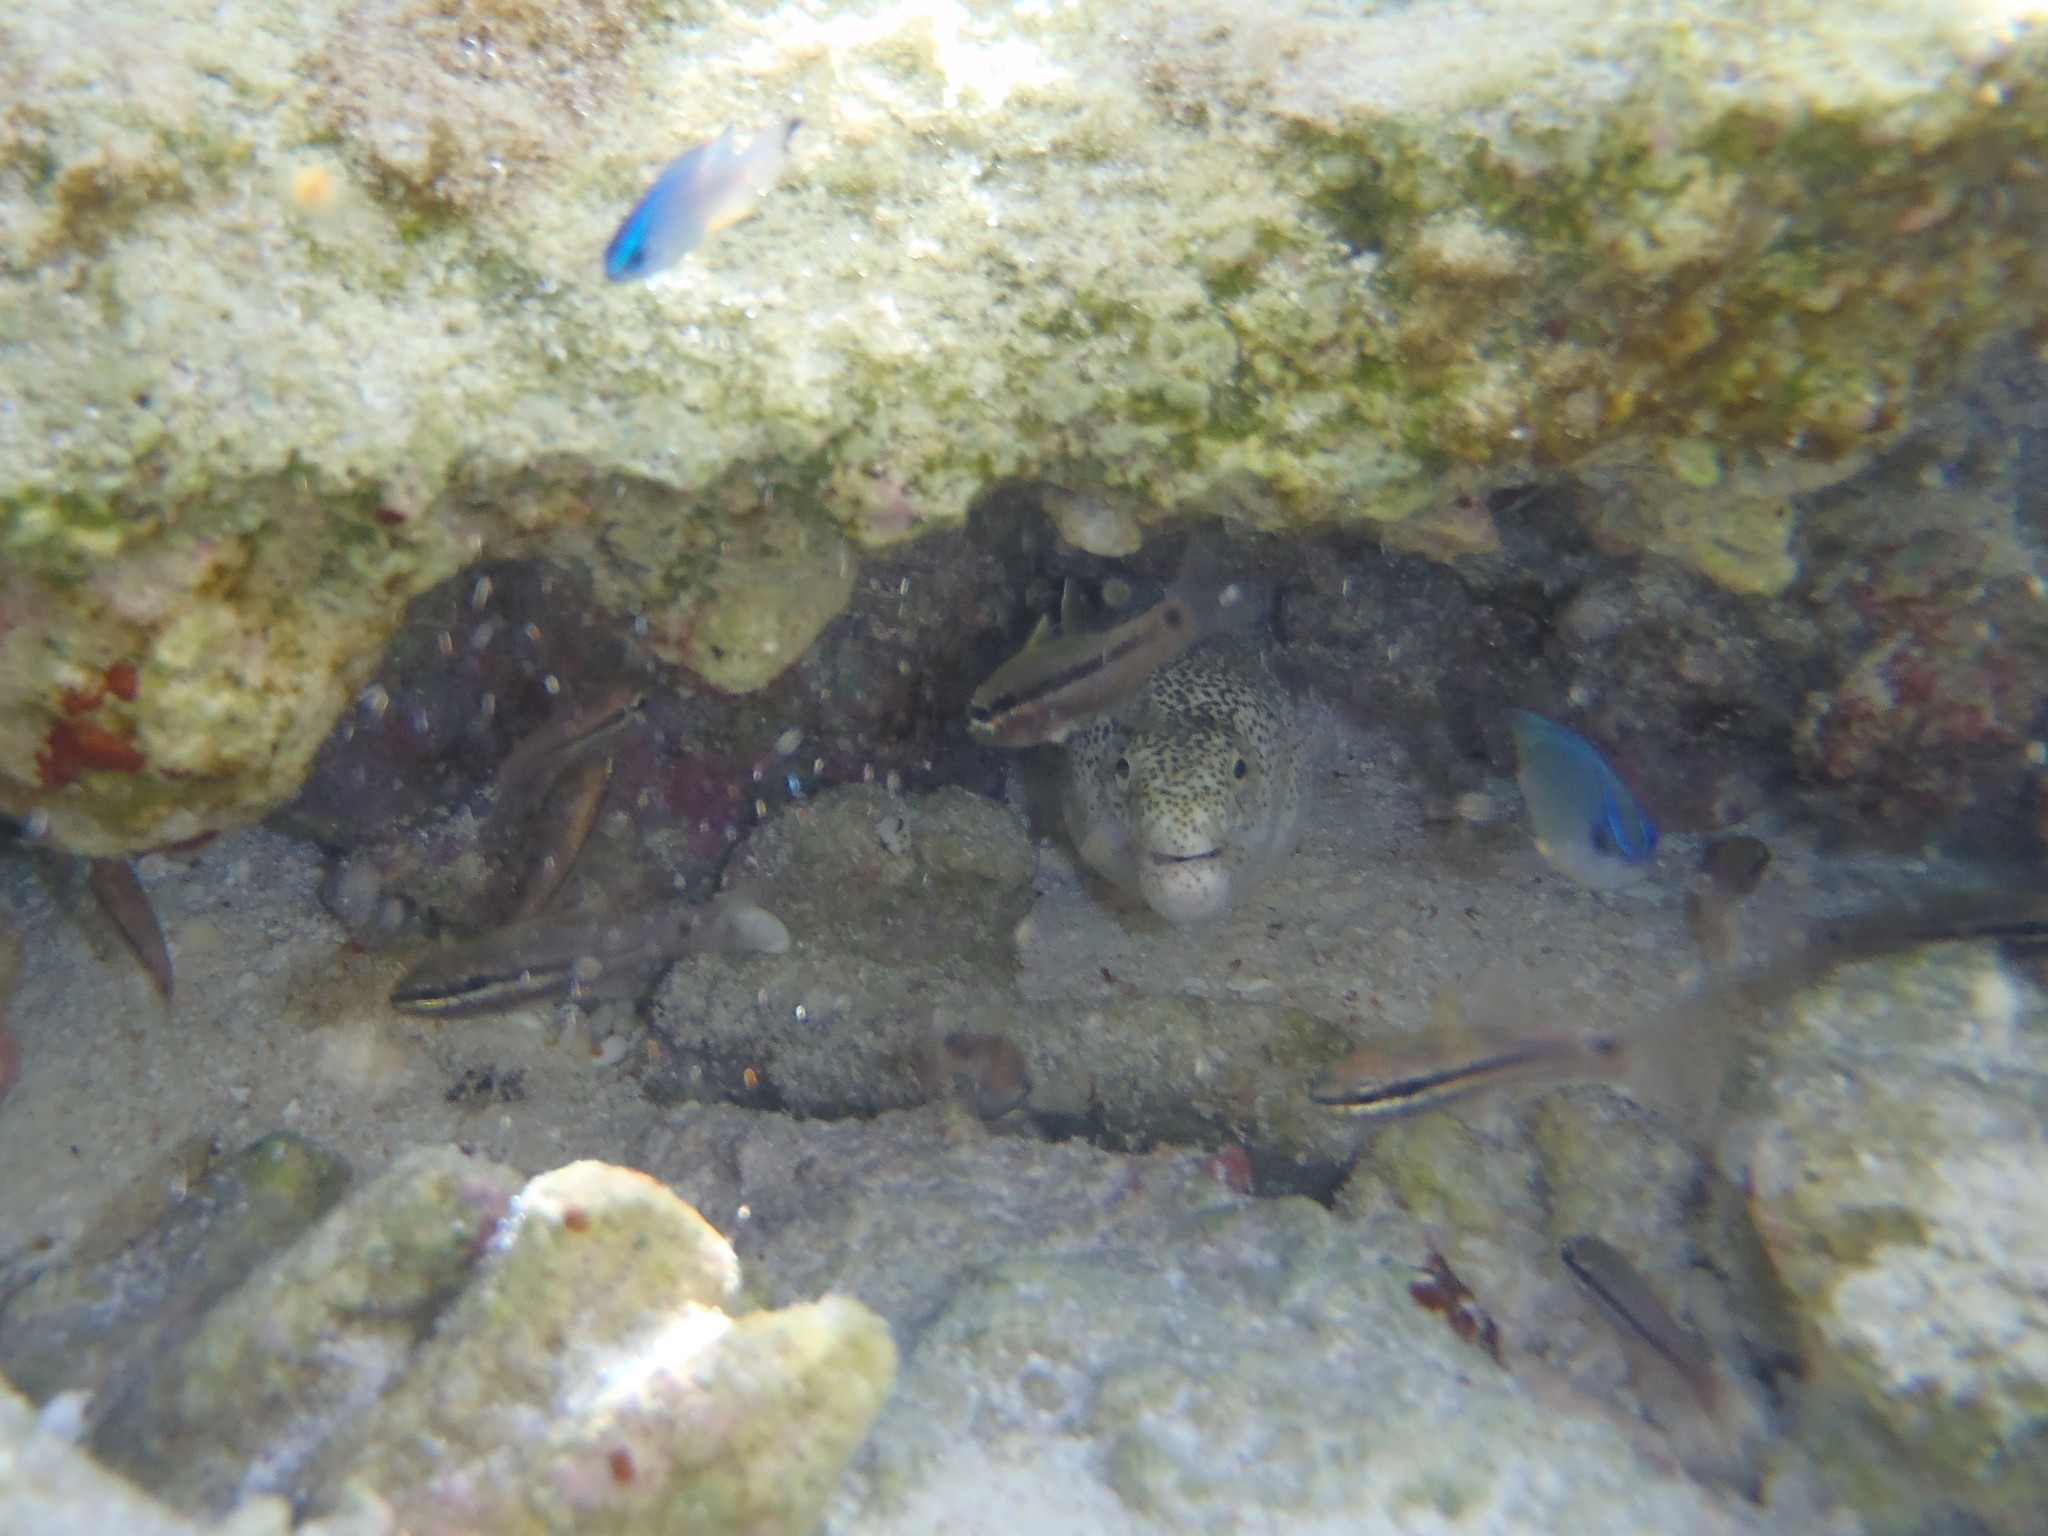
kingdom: Animalia
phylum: Chordata
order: Anguilliformes
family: Muraenidae
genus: Gymnothorax
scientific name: Gymnothorax pictus
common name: Peppered moray
